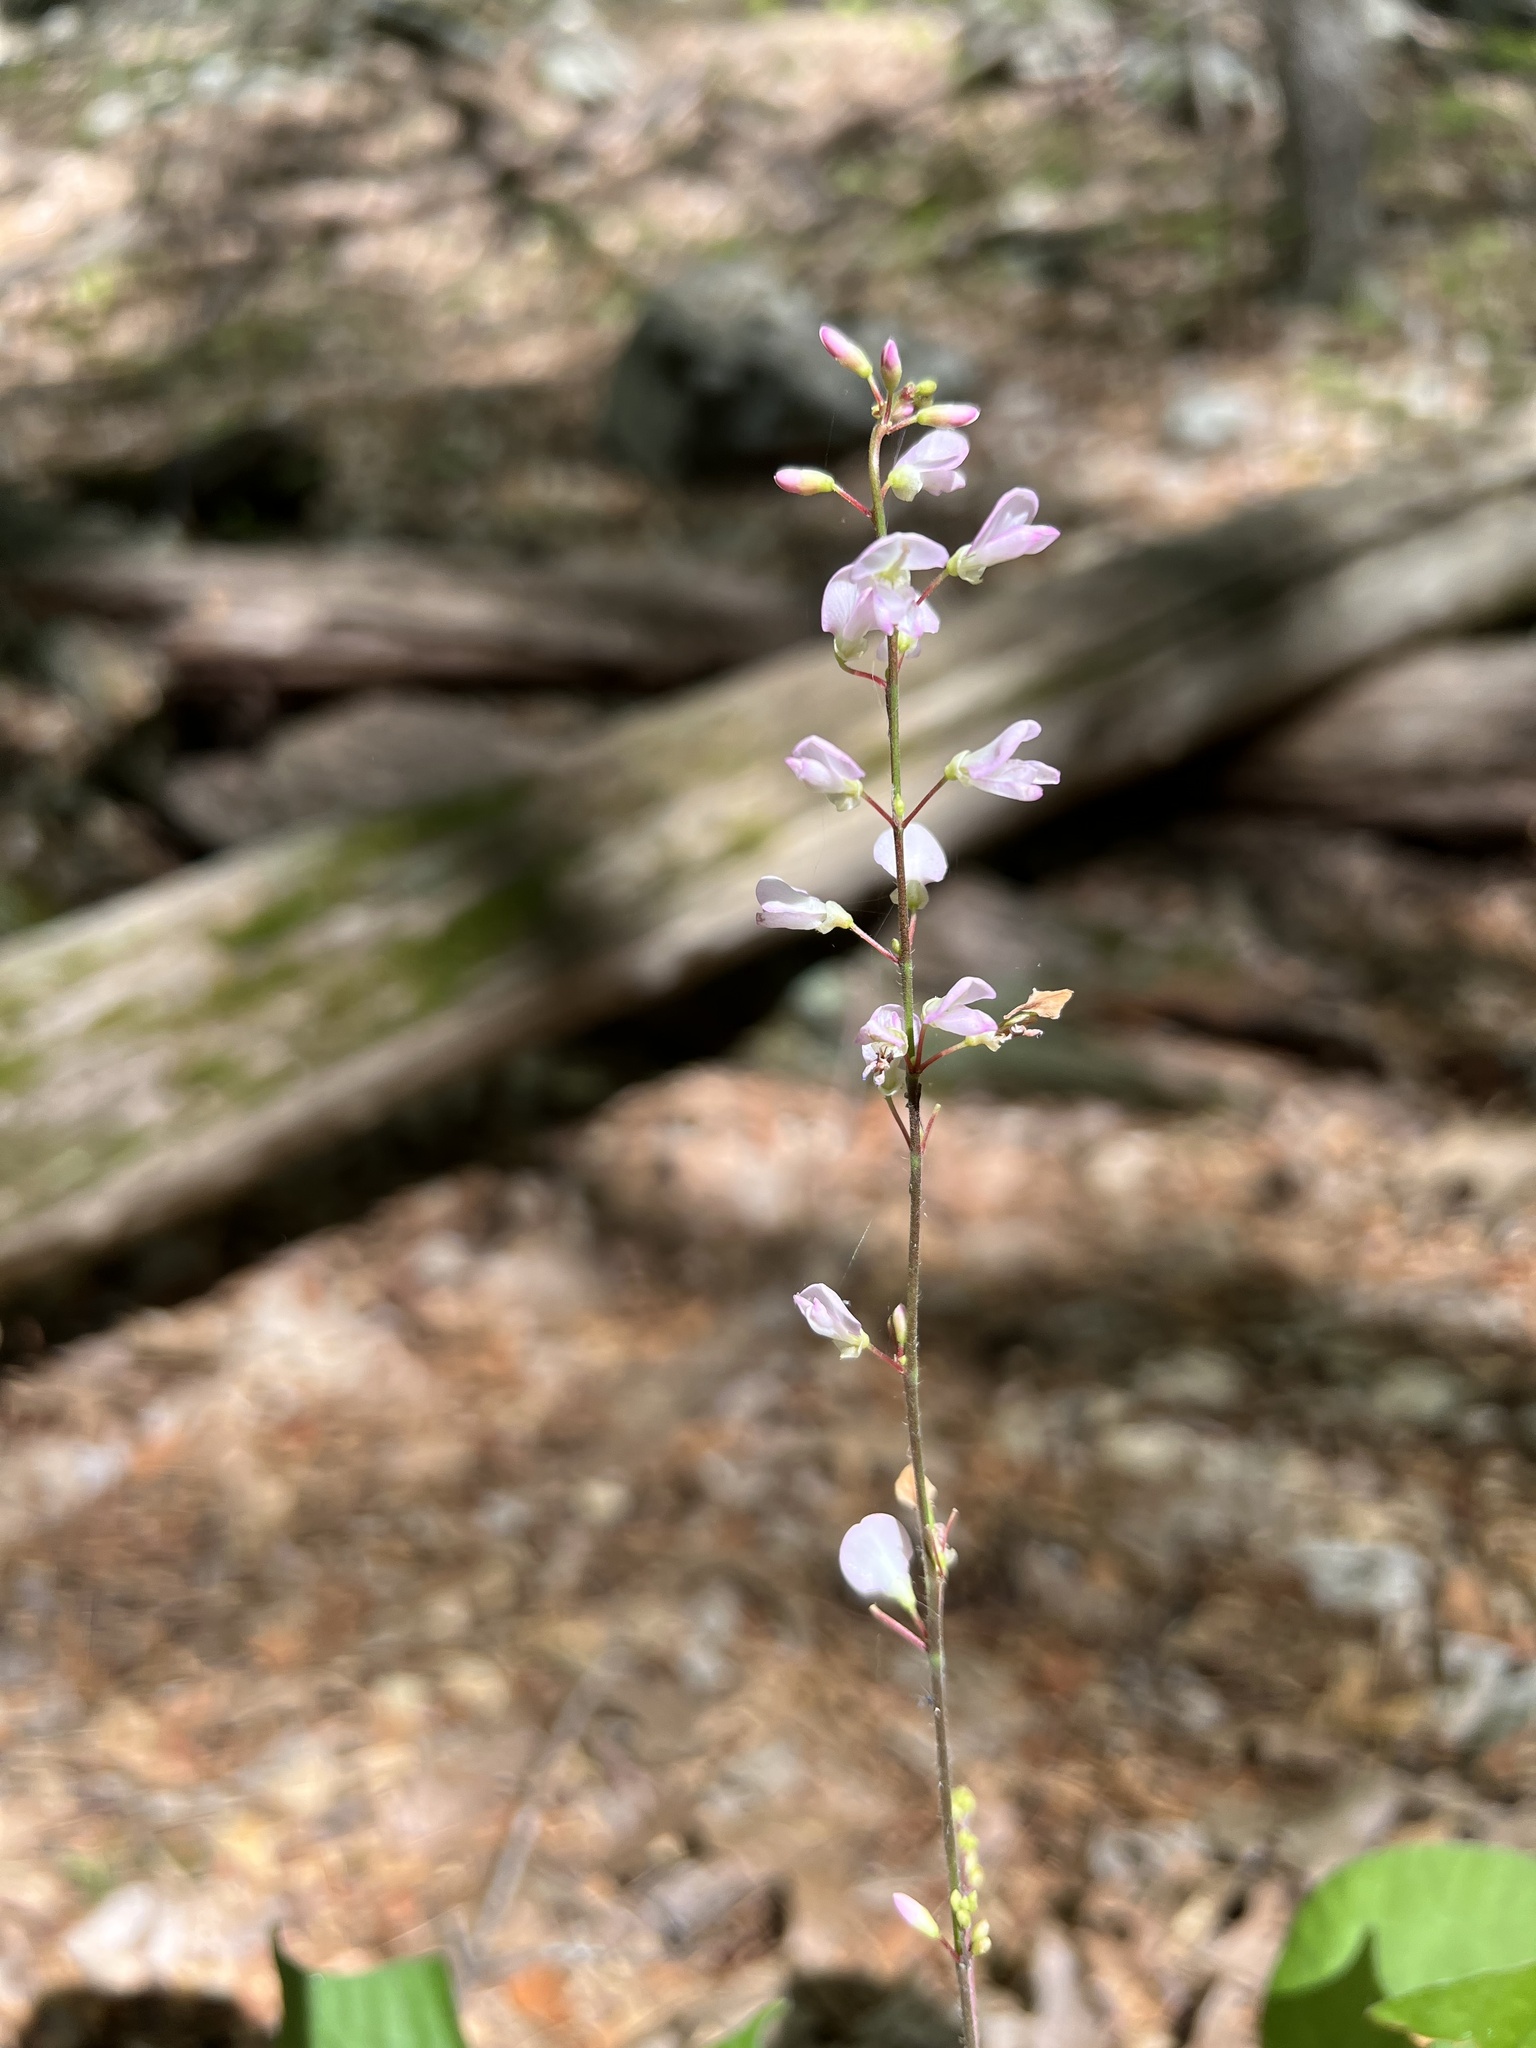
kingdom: Plantae
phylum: Tracheophyta
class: Magnoliopsida
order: Fabales
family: Fabaceae
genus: Hylodesmum
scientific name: Hylodesmum glutinosum
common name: Clustered-leaved tick-trefoil
